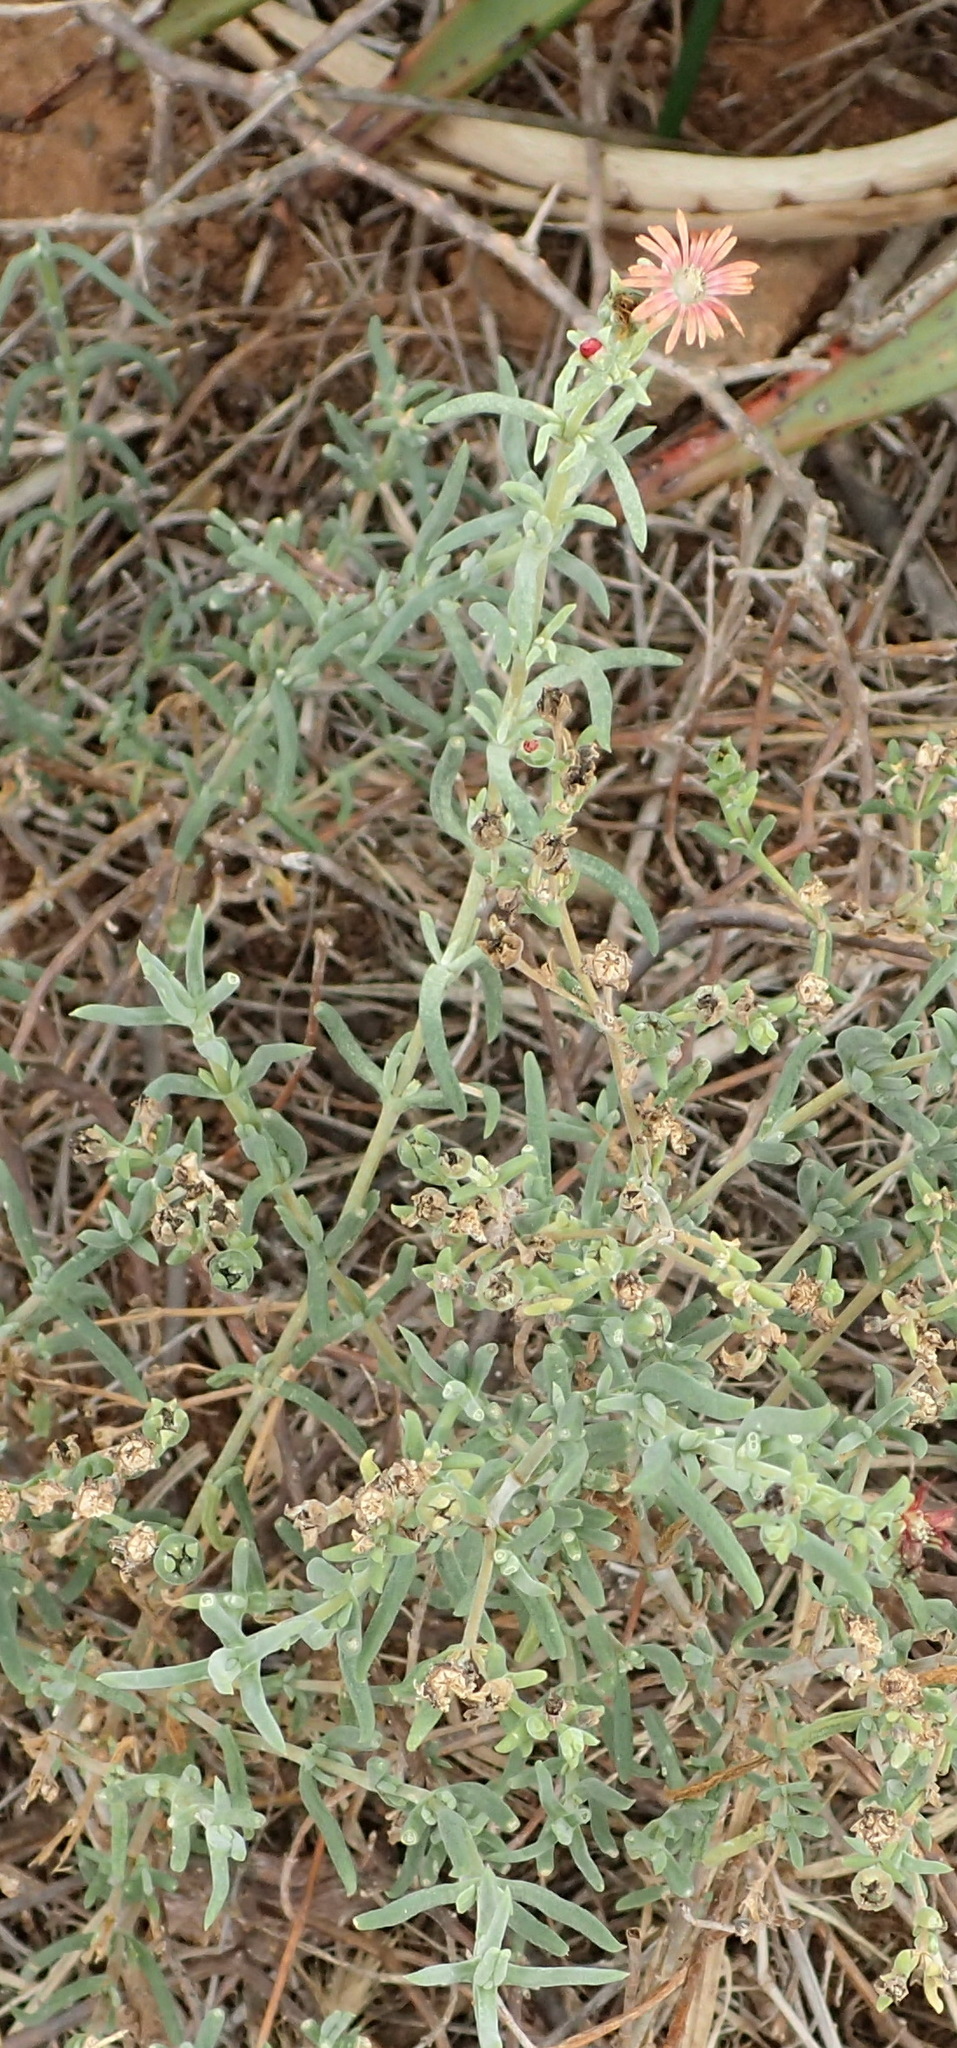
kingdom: Plantae
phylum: Tracheophyta
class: Magnoliopsida
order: Caryophyllales
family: Aizoaceae
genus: Delosperma
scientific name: Delosperma multiflorum
